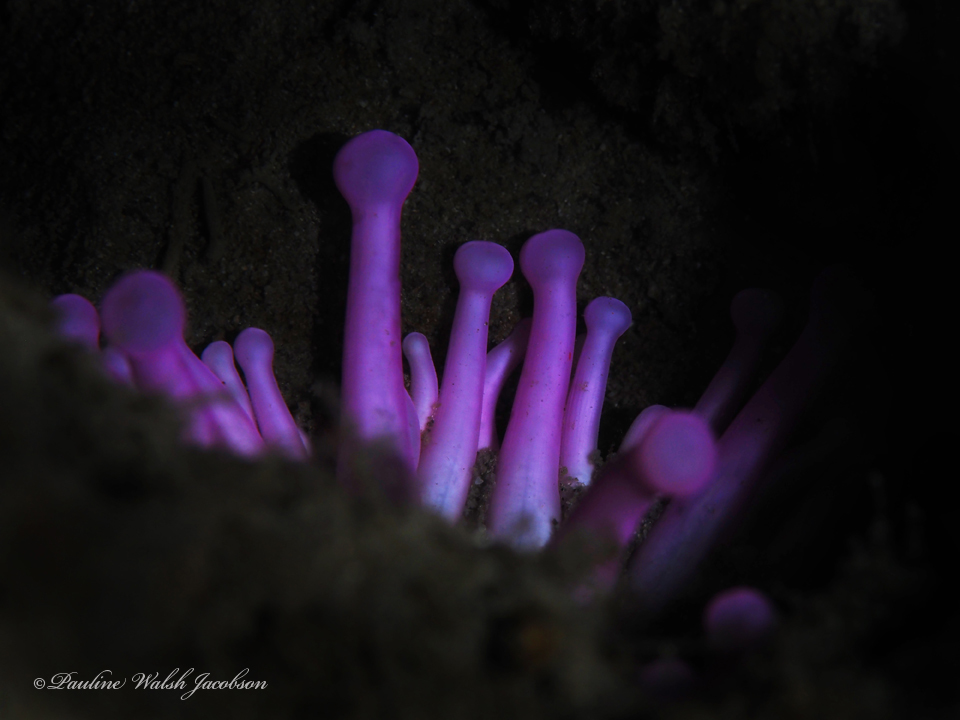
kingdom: Animalia
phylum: Cnidaria
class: Anthozoa
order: Actiniaria
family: Andvakiidae
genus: Telmatactis
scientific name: Telmatactis cricoides
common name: Blunt-tentacled anemone
